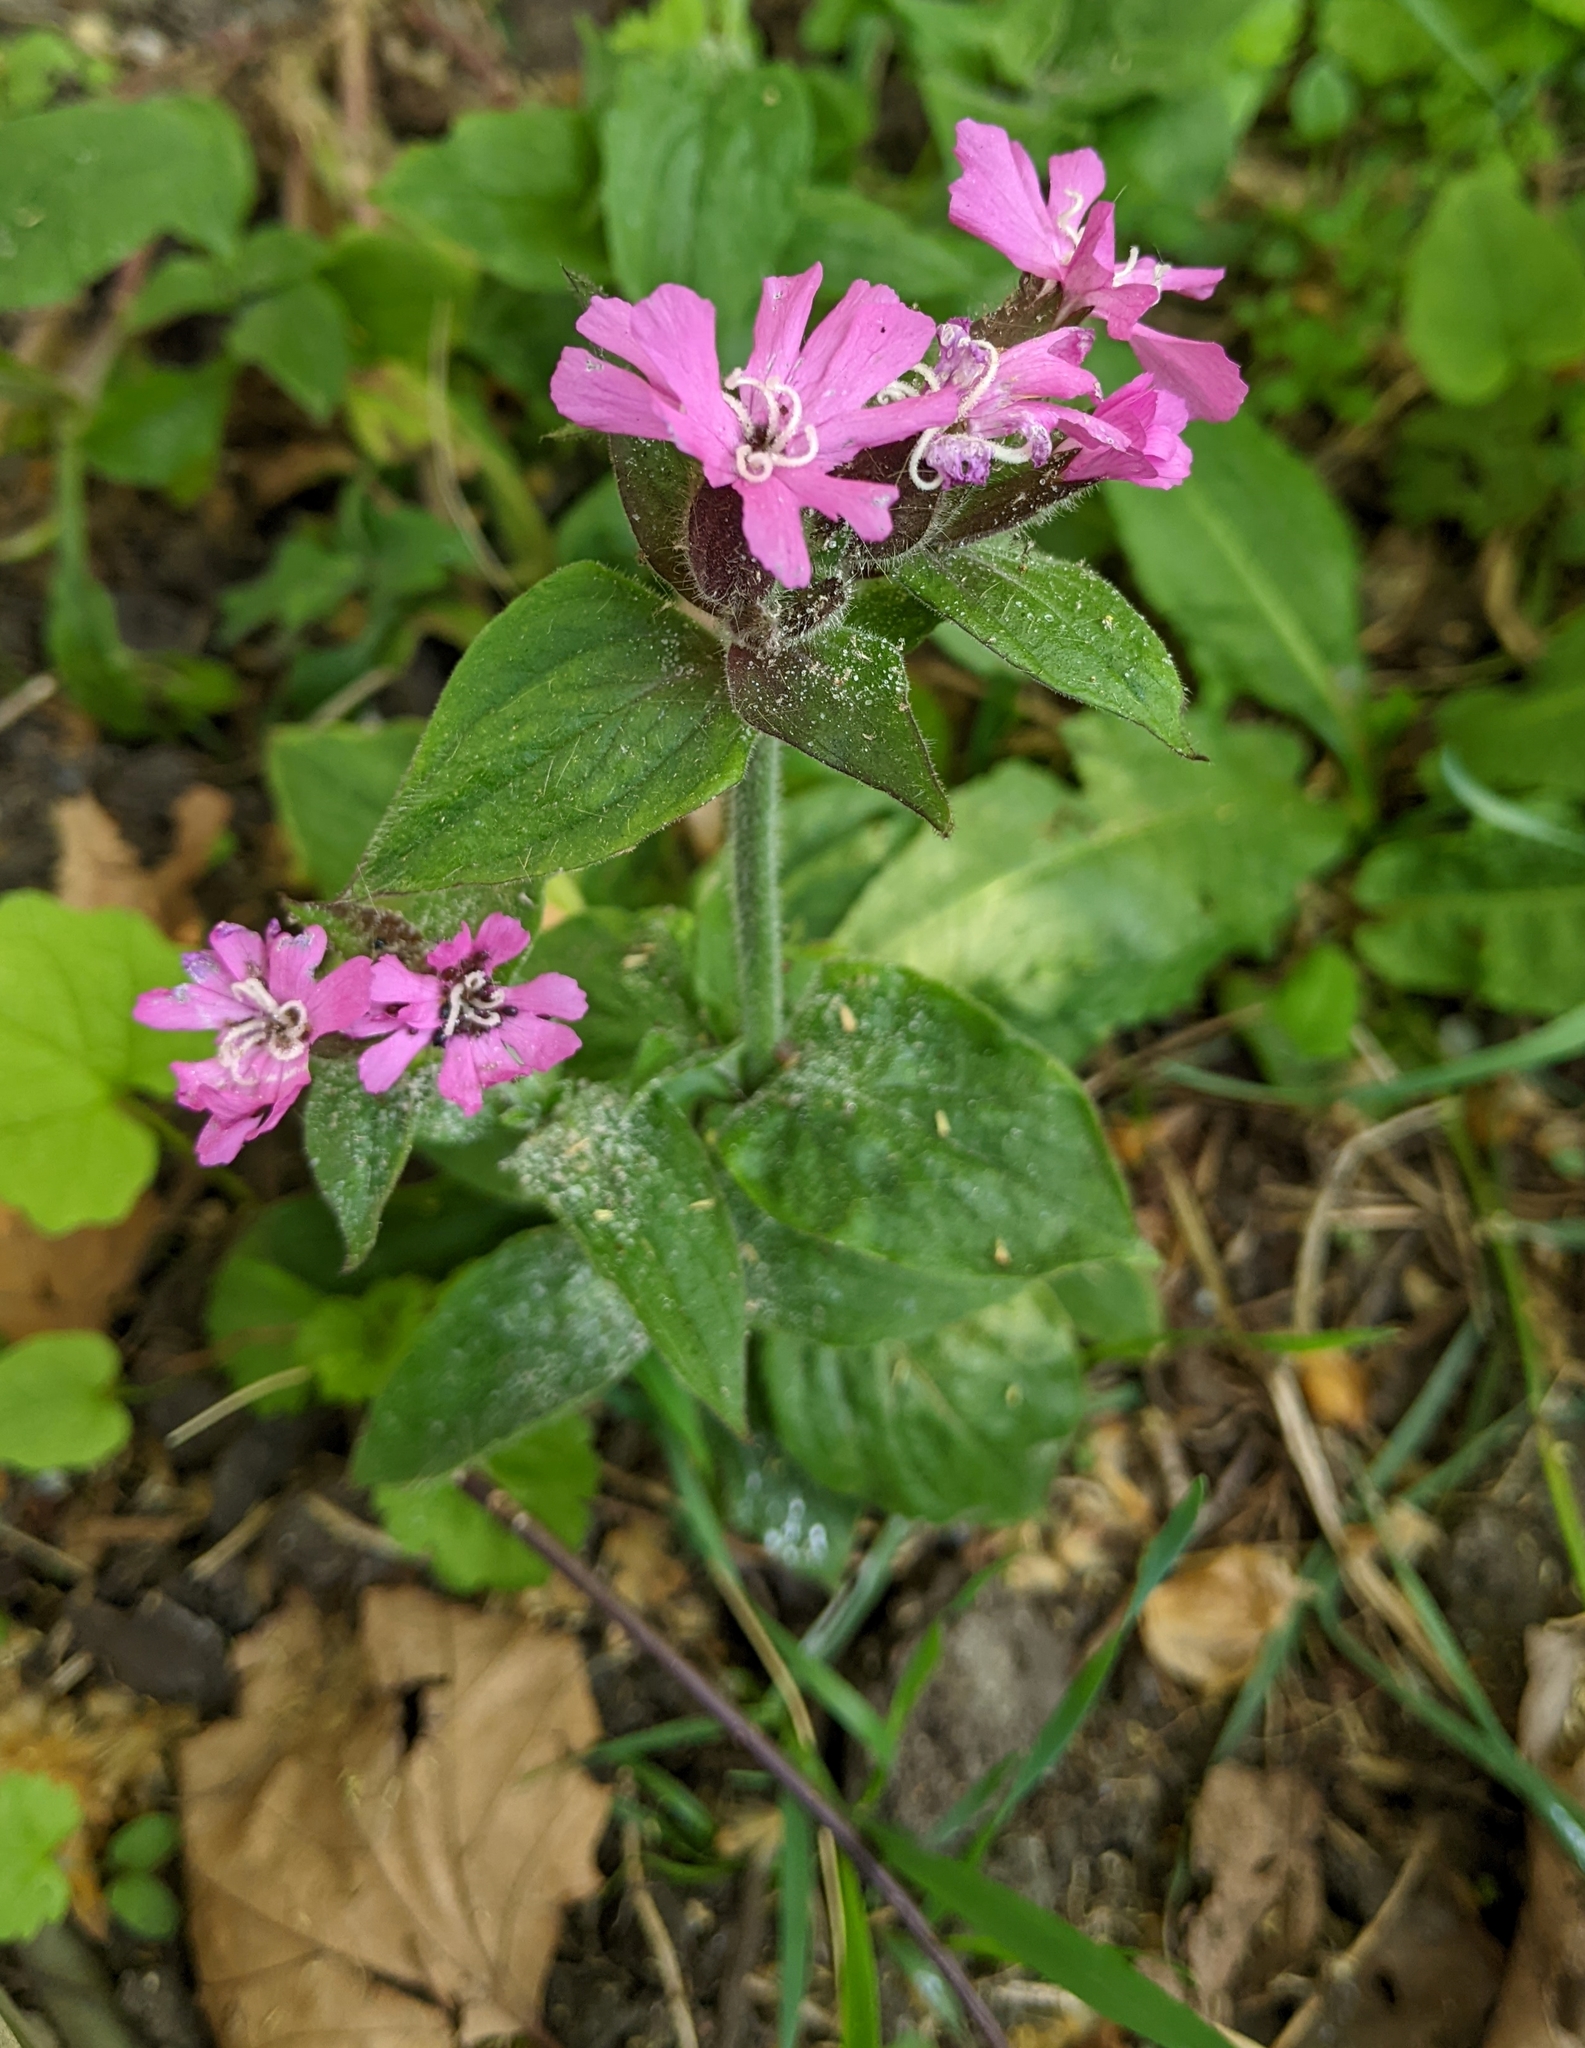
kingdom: Plantae
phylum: Tracheophyta
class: Magnoliopsida
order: Caryophyllales
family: Caryophyllaceae
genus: Silene
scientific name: Silene dioica
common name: Red campion
